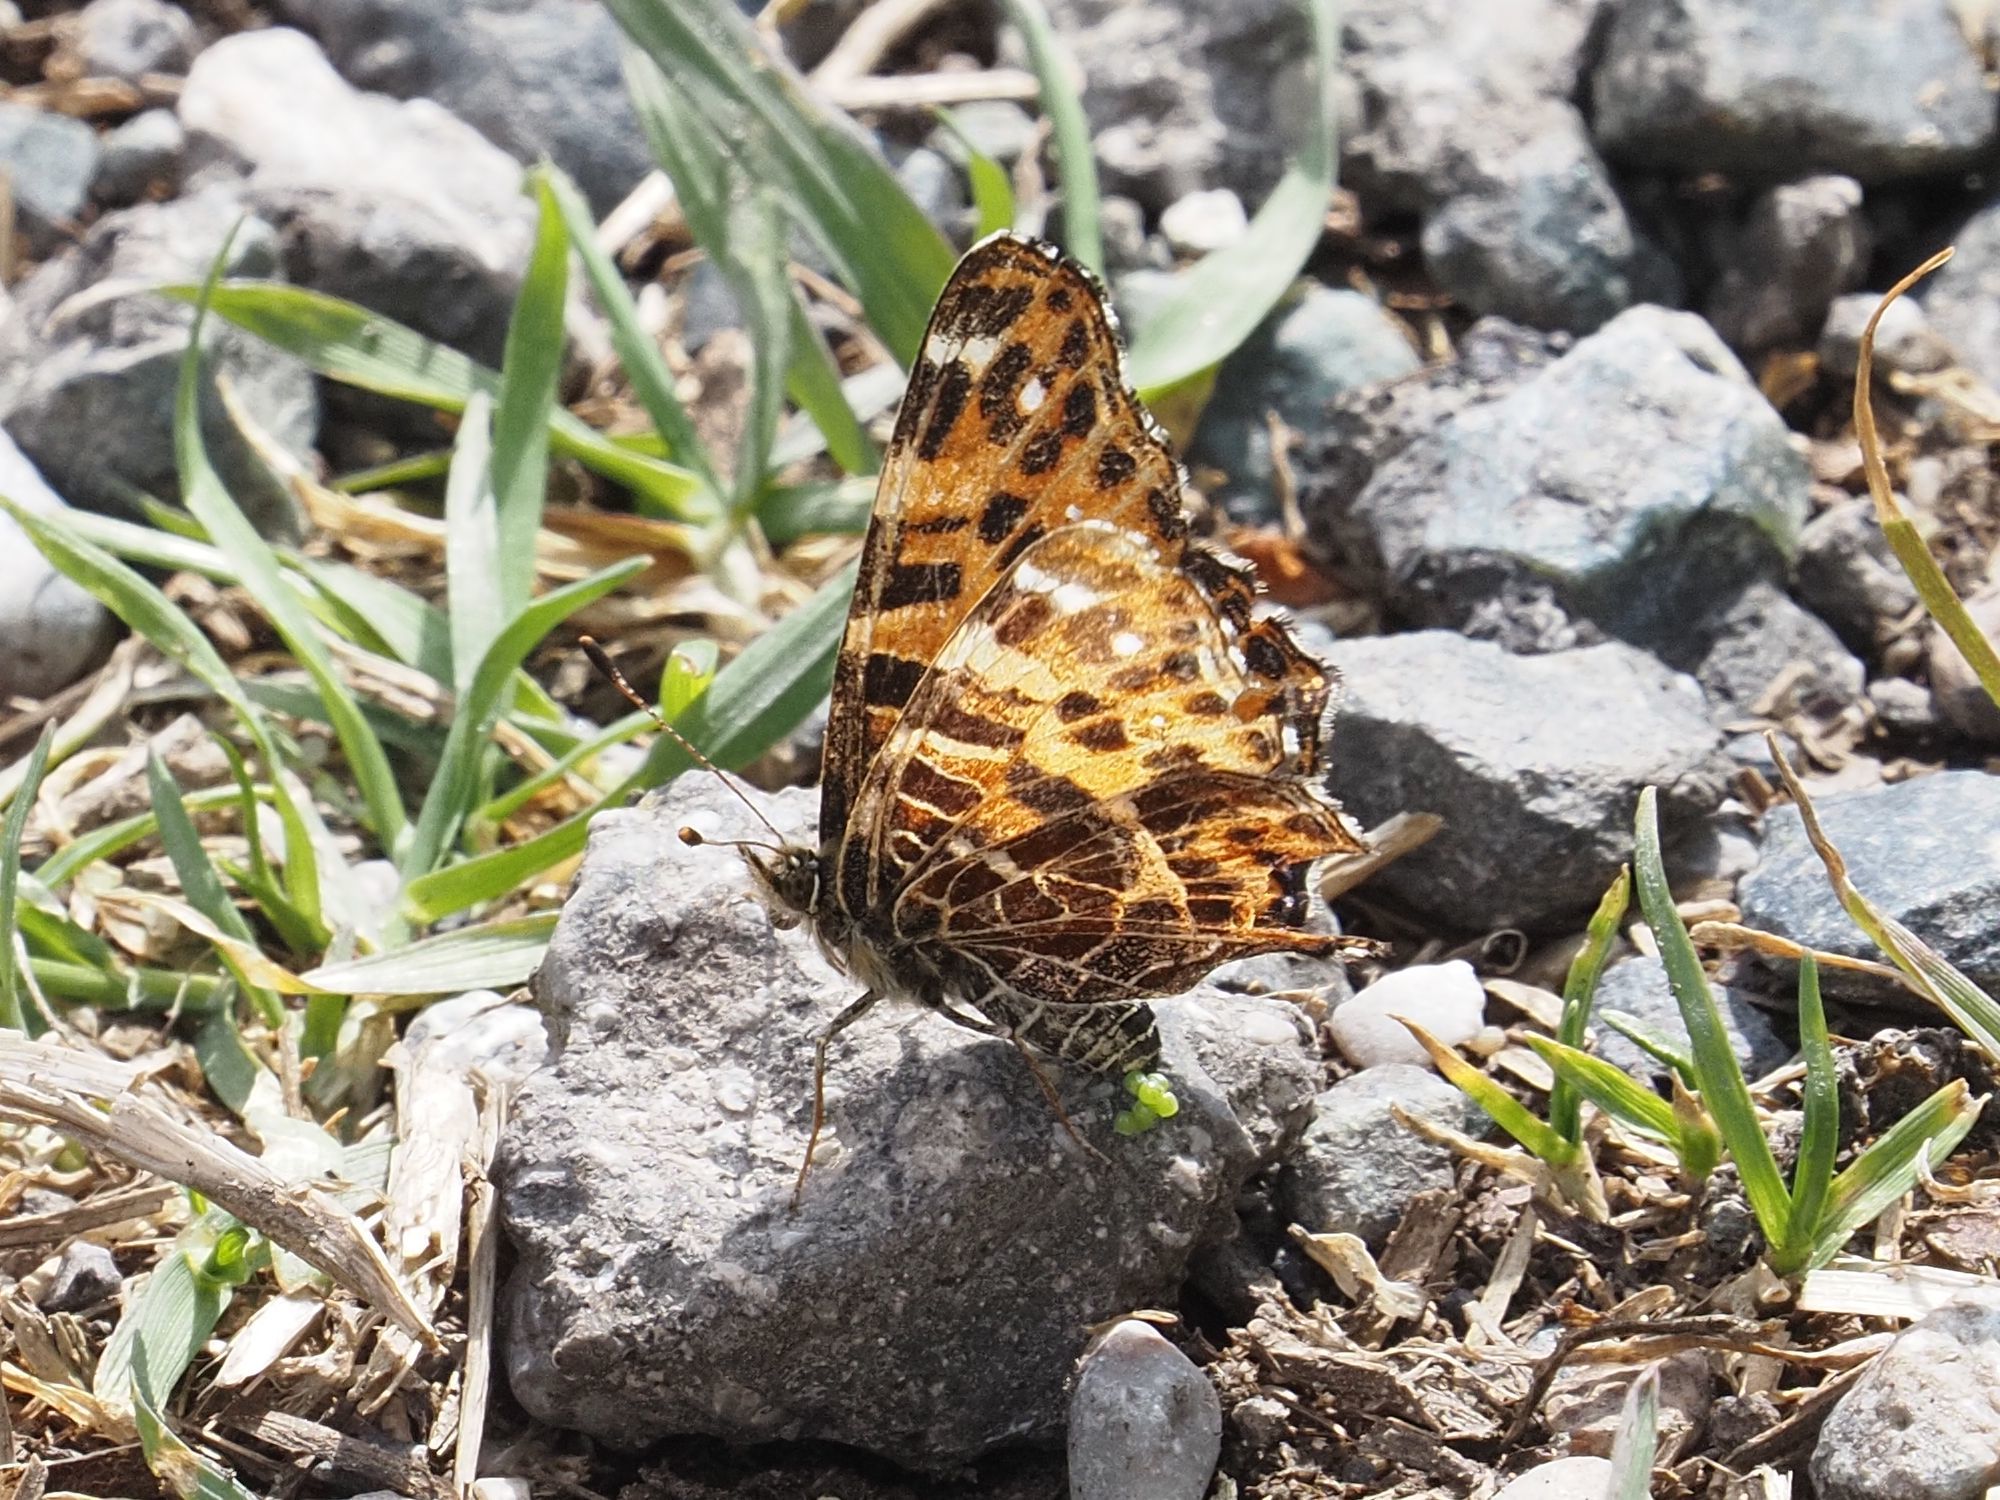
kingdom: Animalia
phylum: Arthropoda
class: Insecta
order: Lepidoptera
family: Nymphalidae
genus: Araschnia
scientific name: Araschnia levana
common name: Map butterfly
